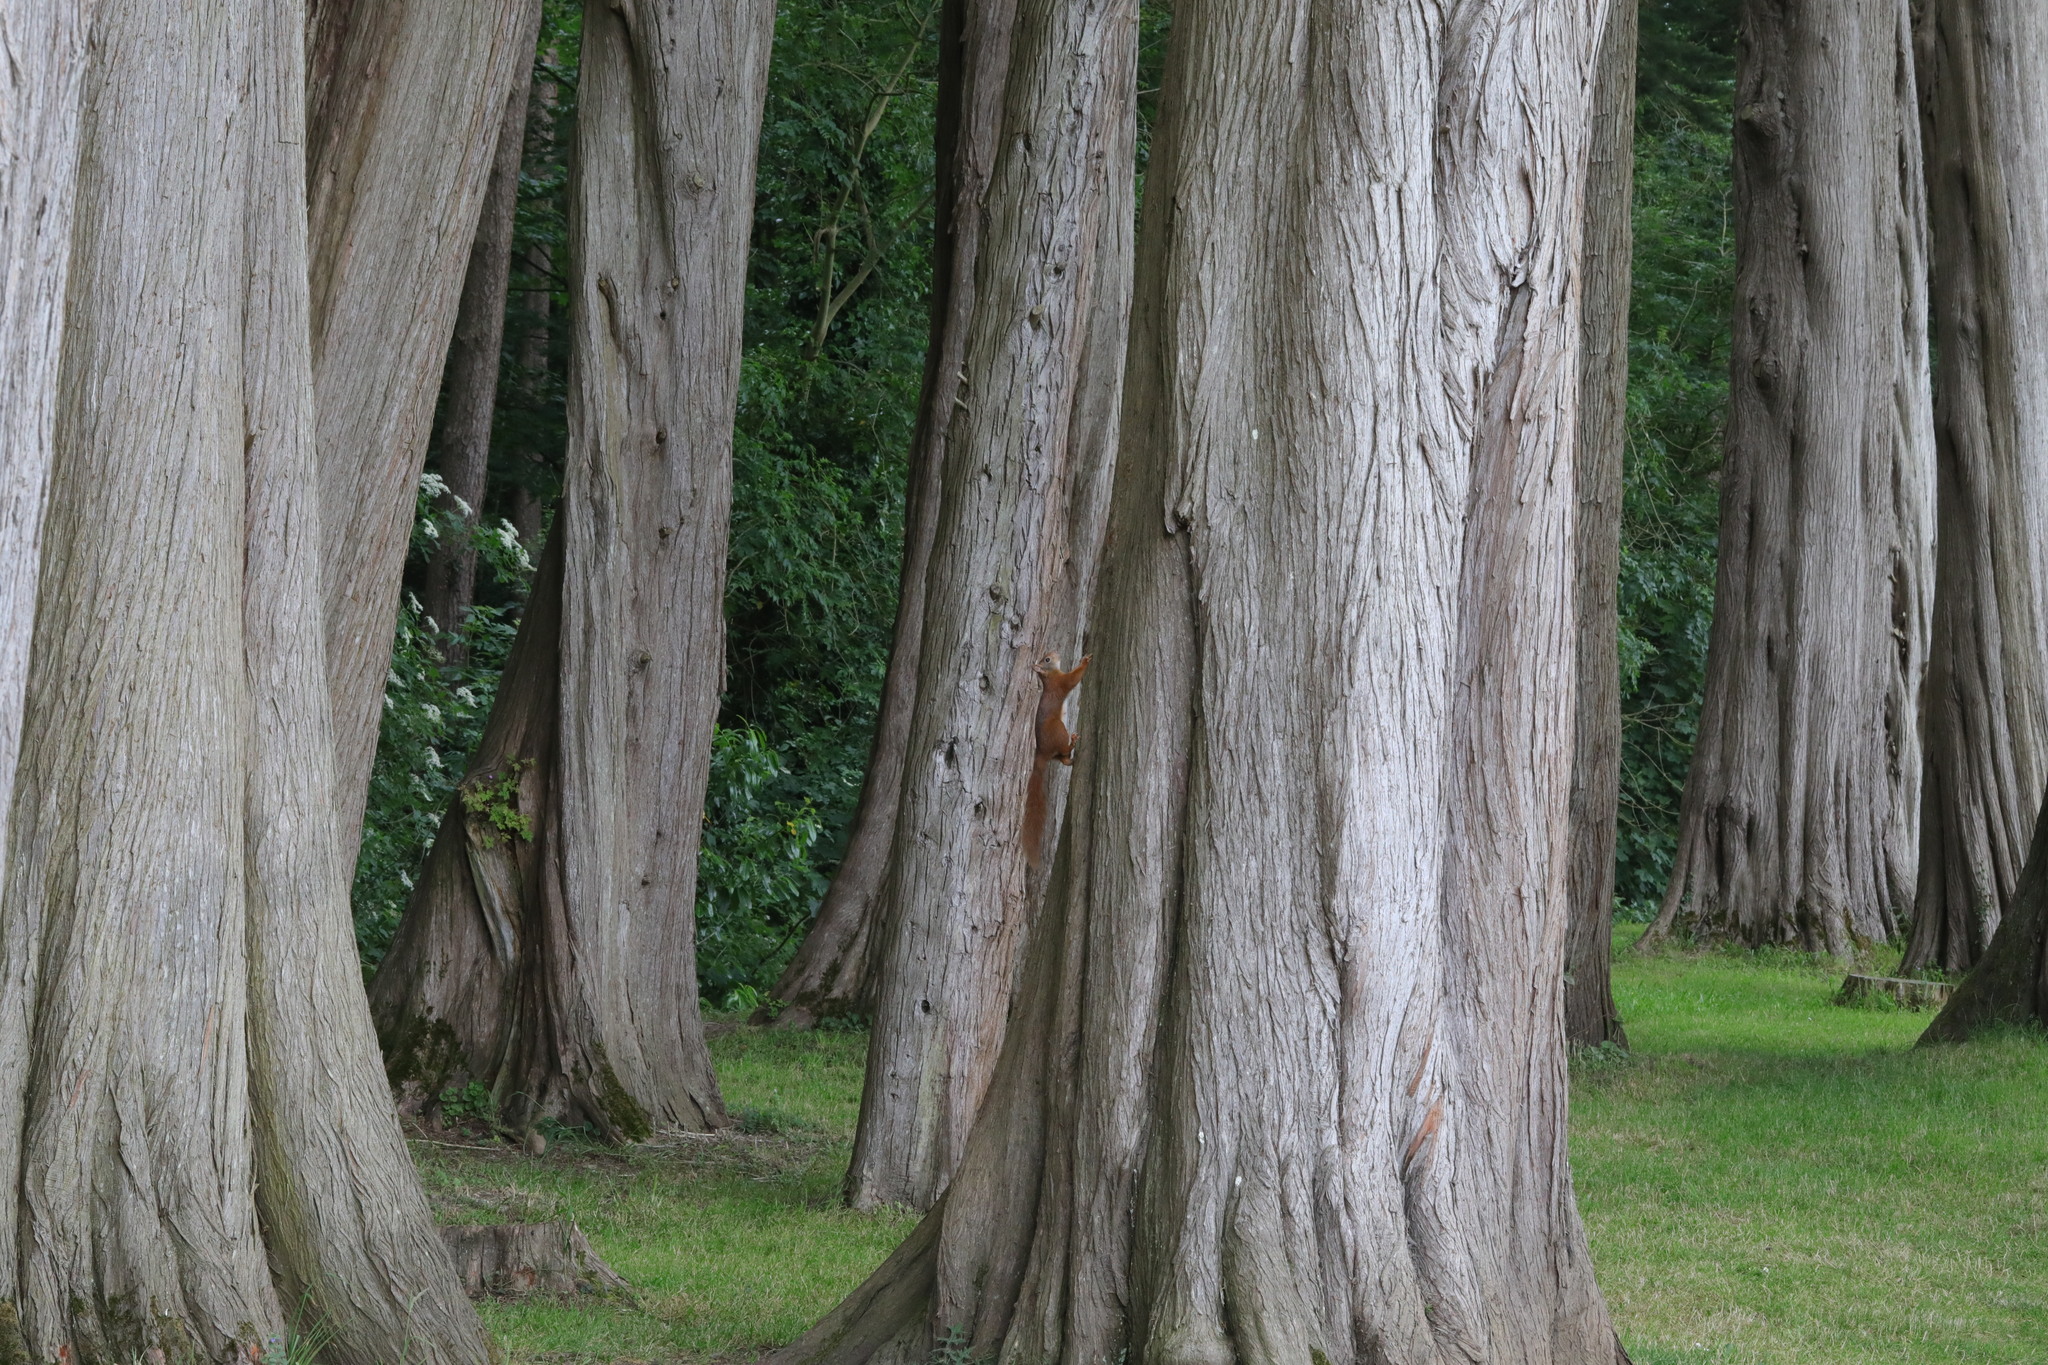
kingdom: Animalia
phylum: Chordata
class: Mammalia
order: Rodentia
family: Sciuridae
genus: Sciurus
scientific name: Sciurus vulgaris
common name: Eurasian red squirrel
